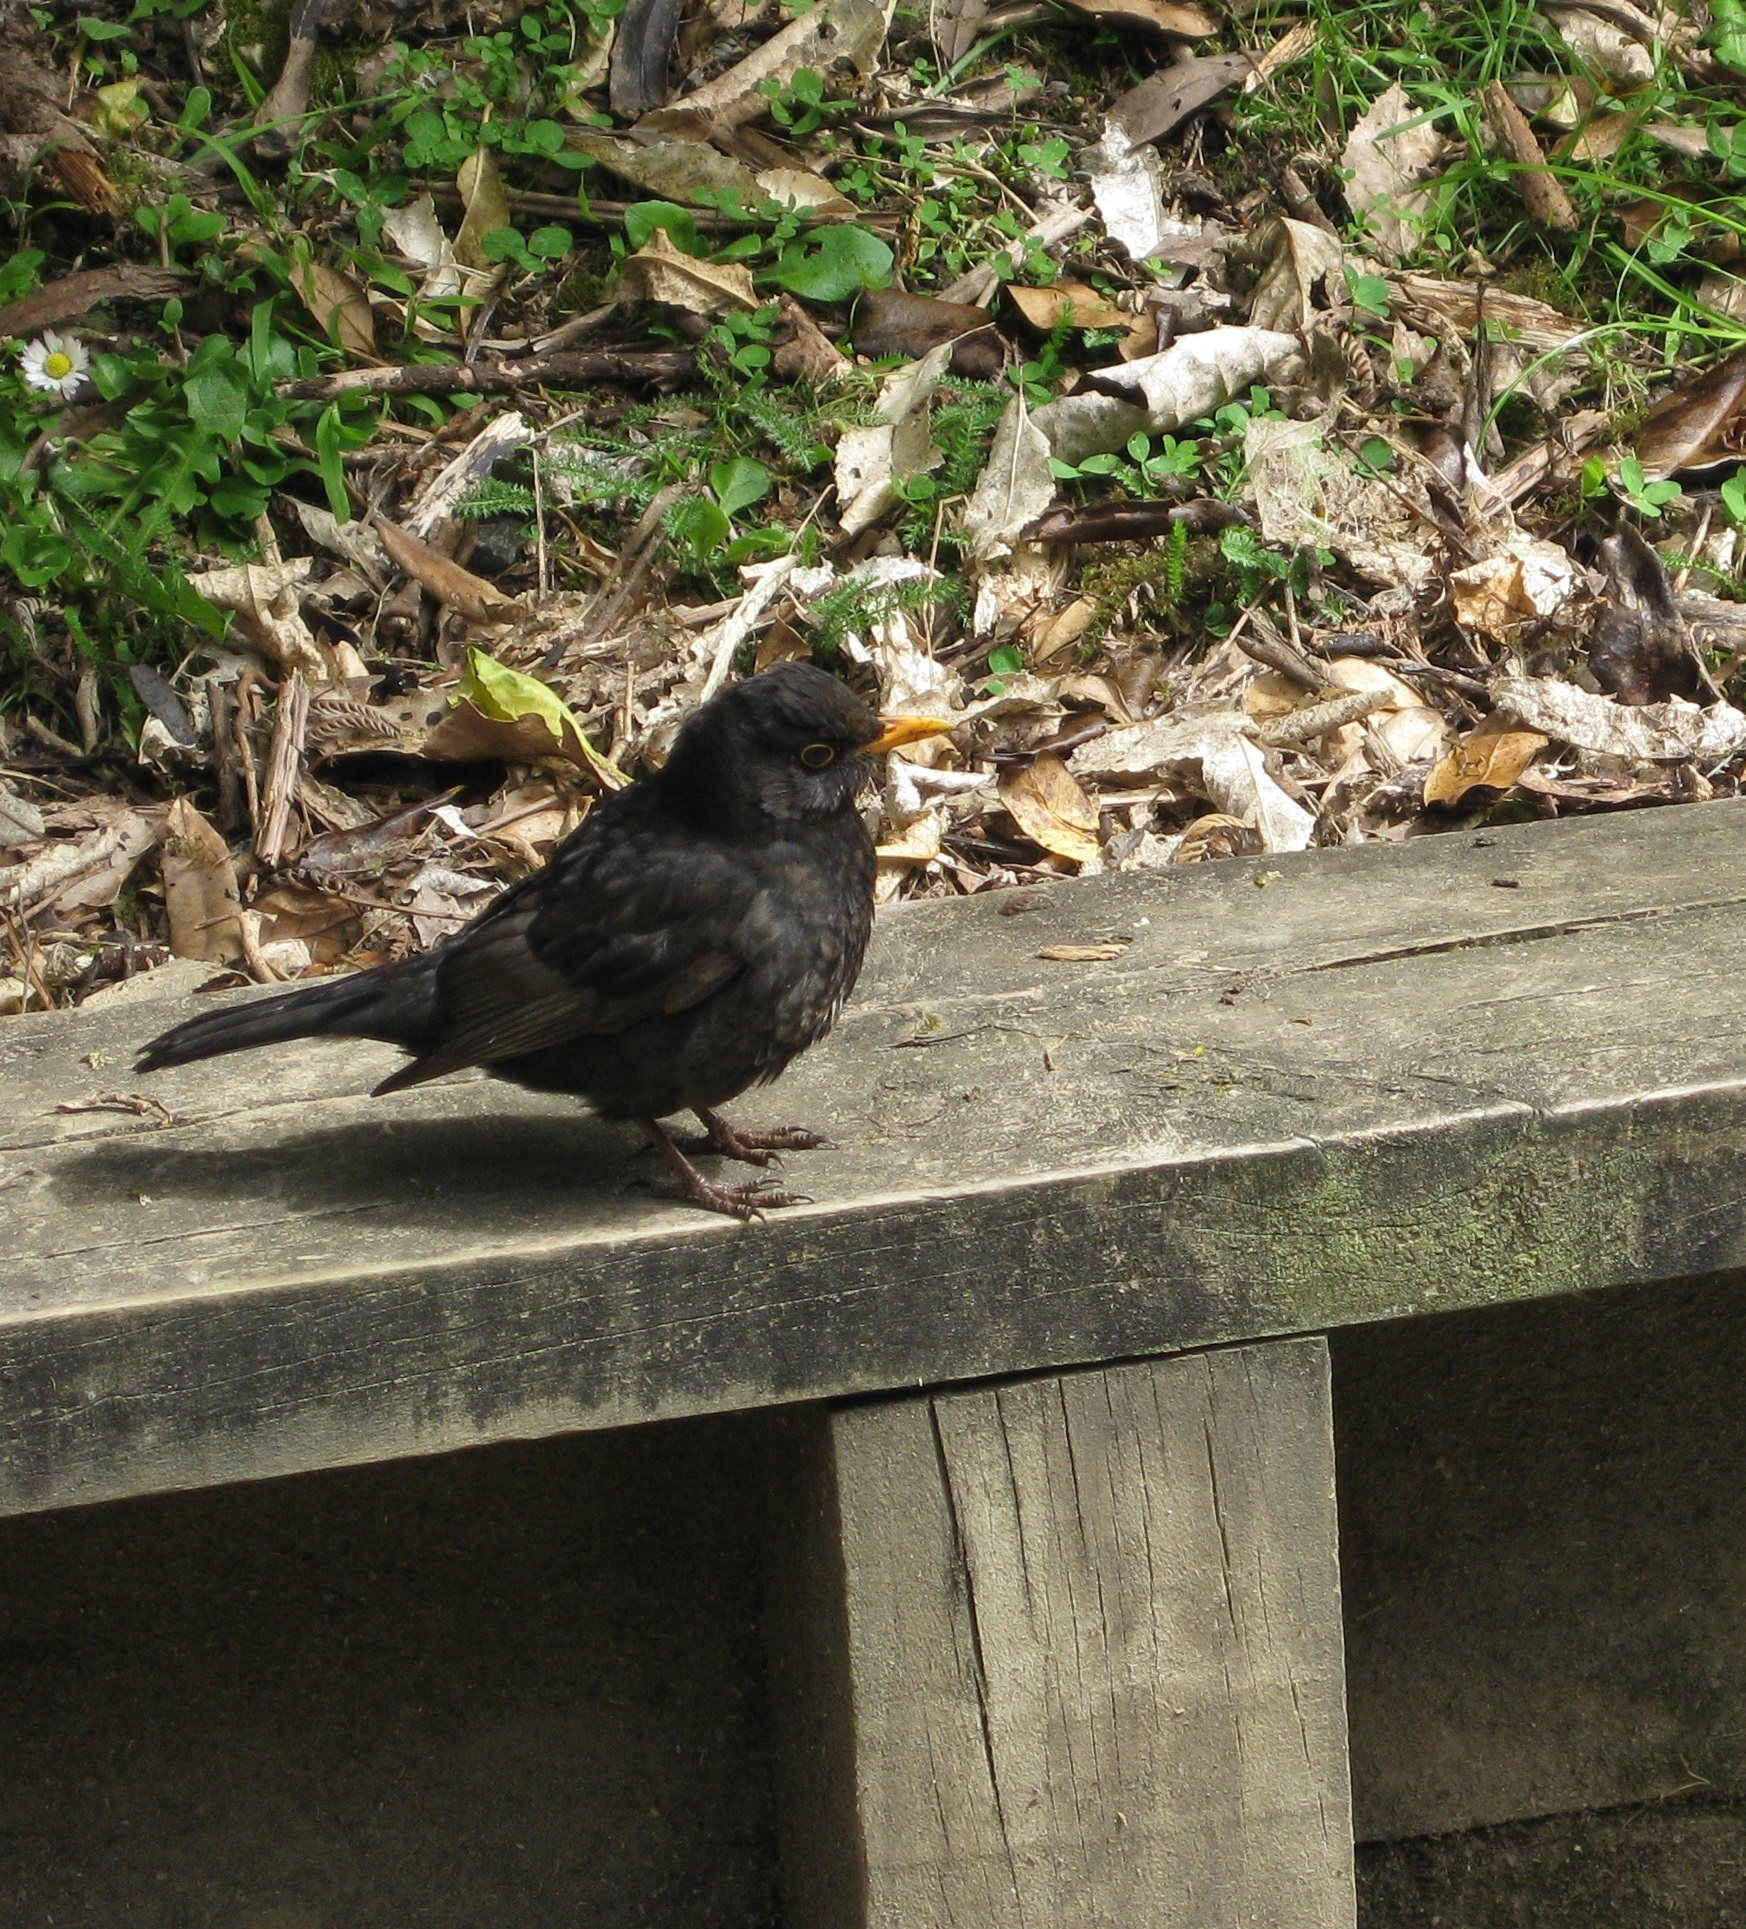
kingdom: Animalia
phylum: Chordata
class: Aves
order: Passeriformes
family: Turdidae
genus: Turdus
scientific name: Turdus merula
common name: Common blackbird
